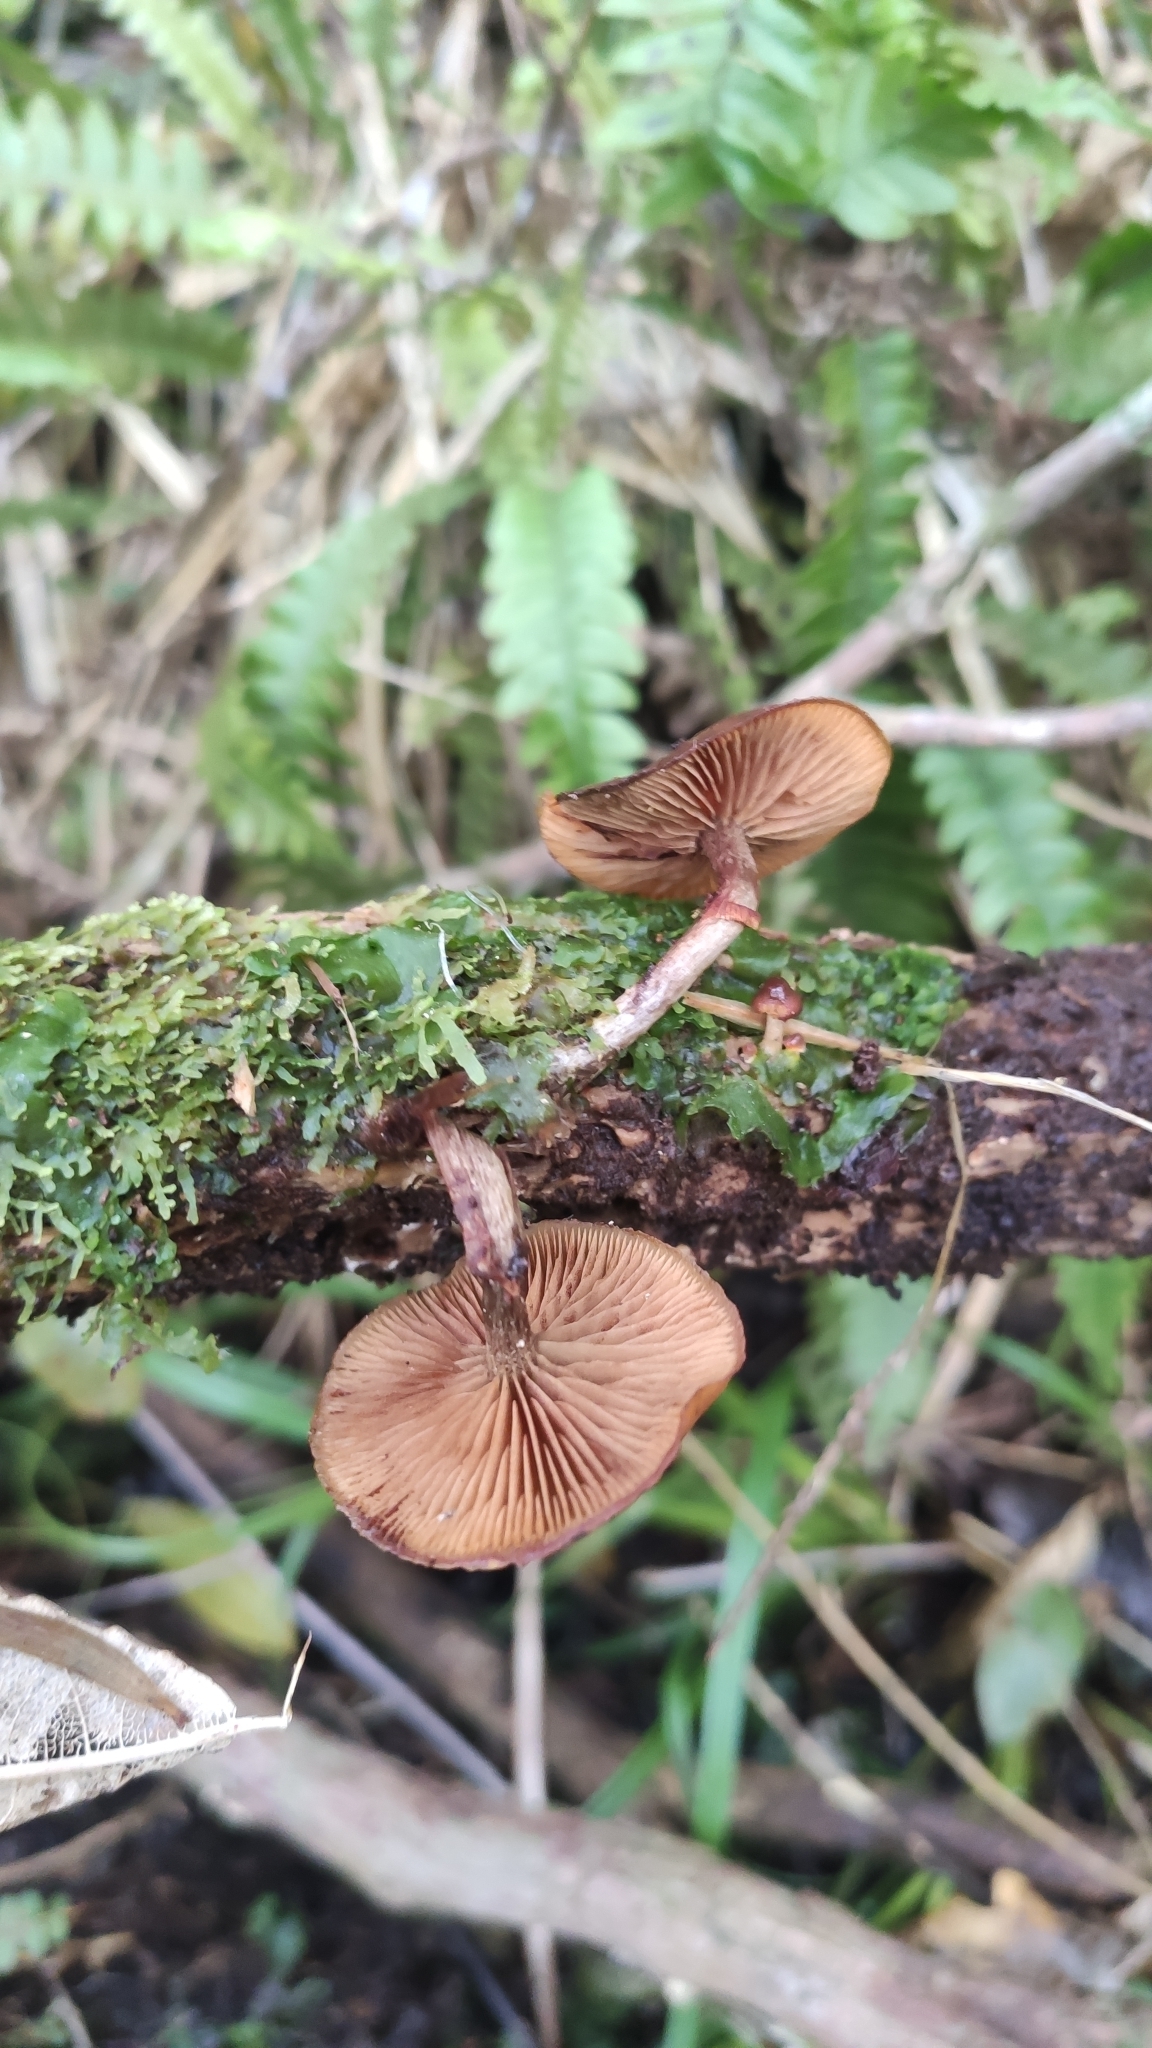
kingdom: Fungi
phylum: Basidiomycota
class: Agaricomycetes
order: Agaricales
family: Hymenogastraceae
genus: Galerina
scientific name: Galerina patagonica
